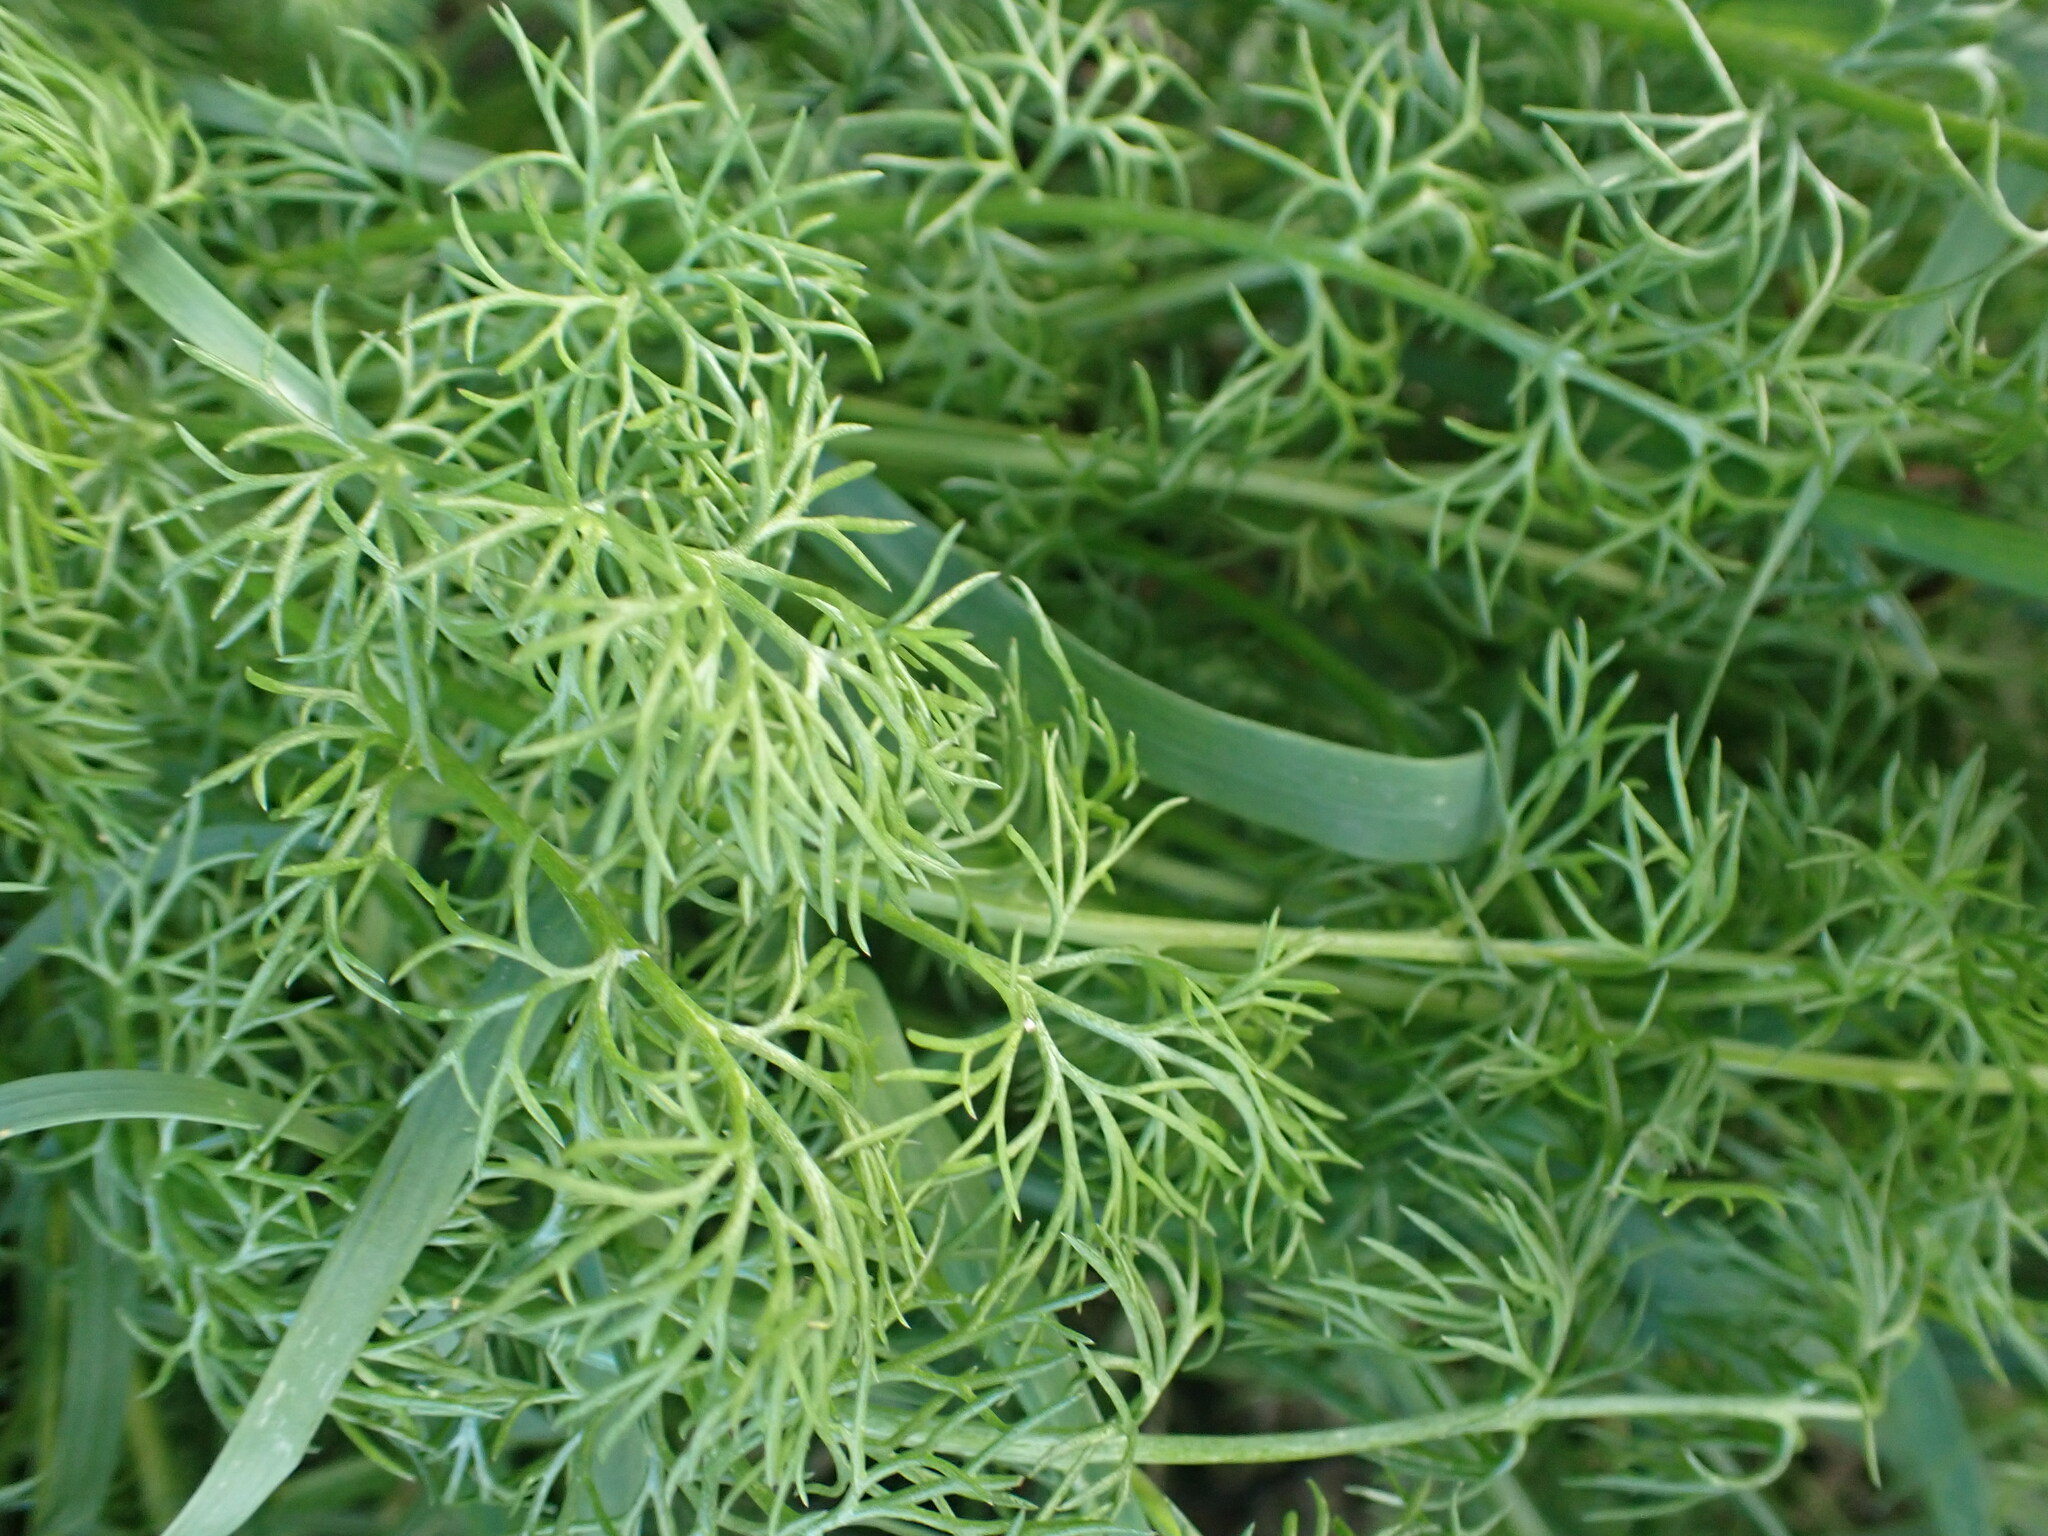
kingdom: Plantae
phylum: Tracheophyta
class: Magnoliopsida
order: Apiales
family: Apiaceae
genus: Foeniculum
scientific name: Foeniculum vulgare
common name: Fennel
